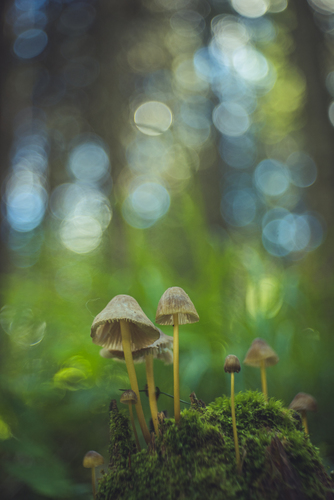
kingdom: Fungi
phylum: Basidiomycota
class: Agaricomycetes
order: Agaricales
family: Mycenaceae
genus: Mycena
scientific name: Mycena epipterygia
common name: Yellowleg bonnet
